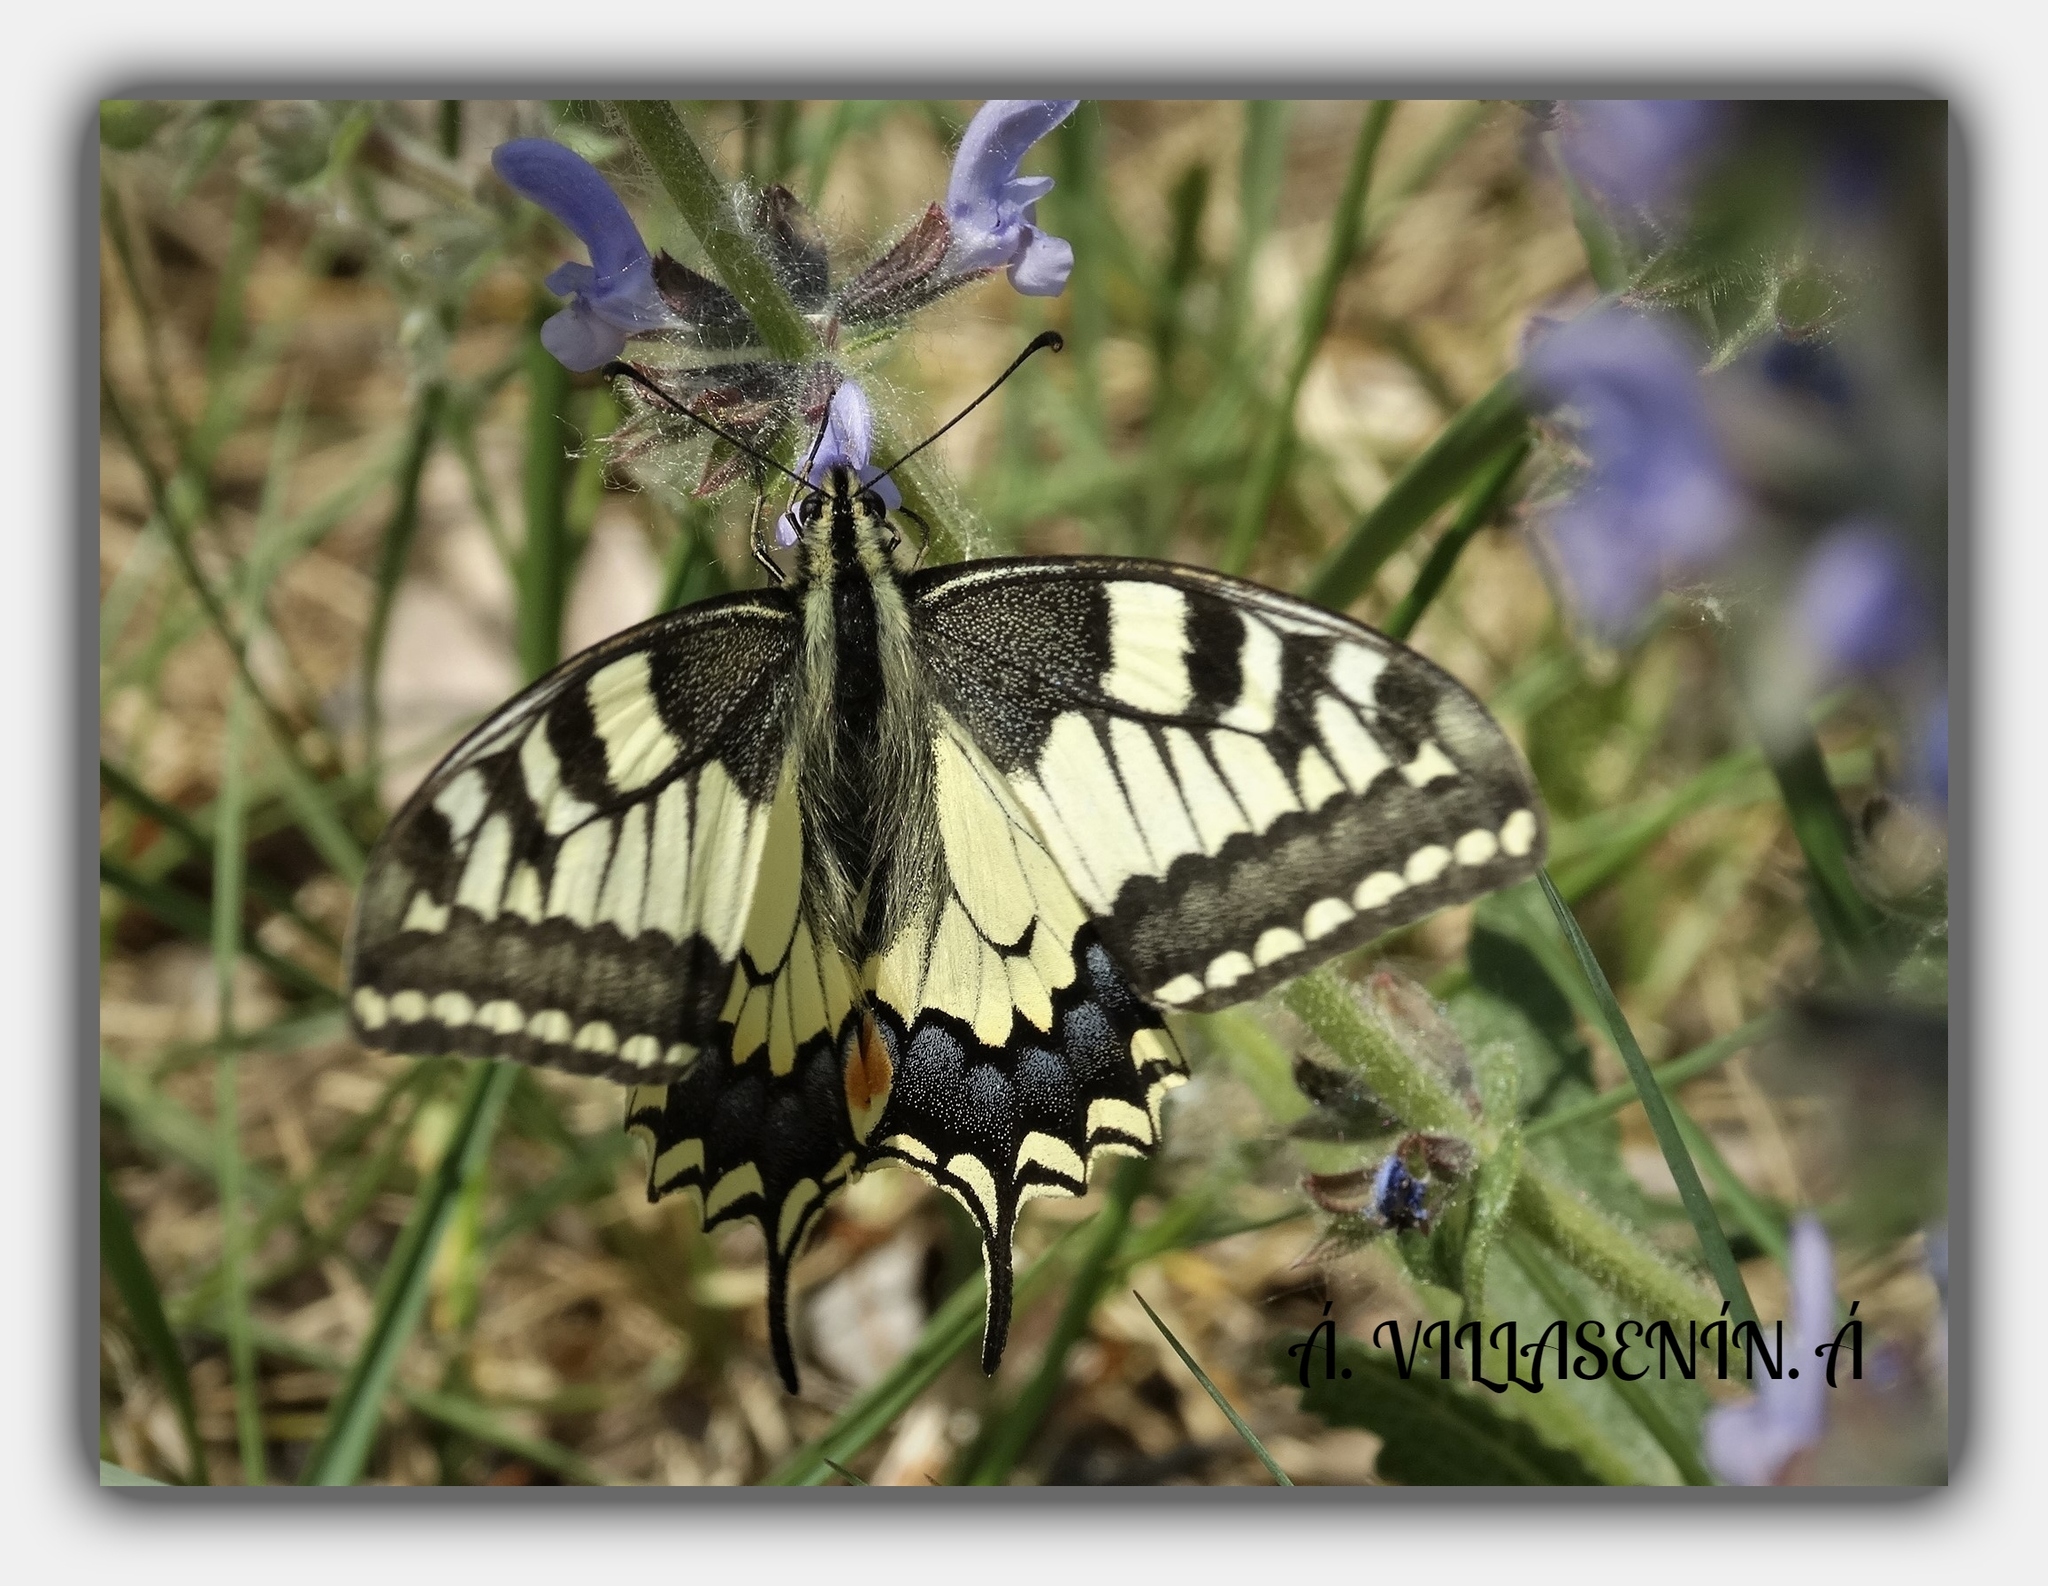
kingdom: Animalia
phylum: Arthropoda
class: Insecta
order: Lepidoptera
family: Papilionidae
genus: Papilio
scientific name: Papilio machaon
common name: Swallowtail
